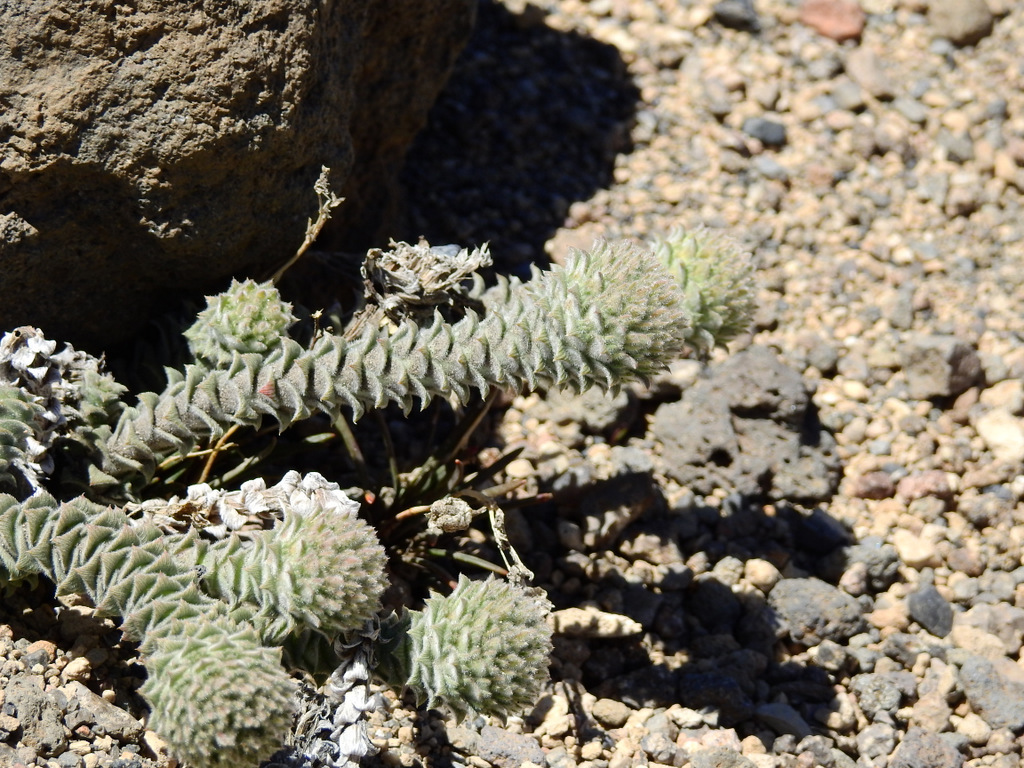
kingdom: Plantae
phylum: Tracheophyta
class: Magnoliopsida
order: Asterales
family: Asteraceae
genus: Nassauvia
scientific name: Nassauvia revoluta
